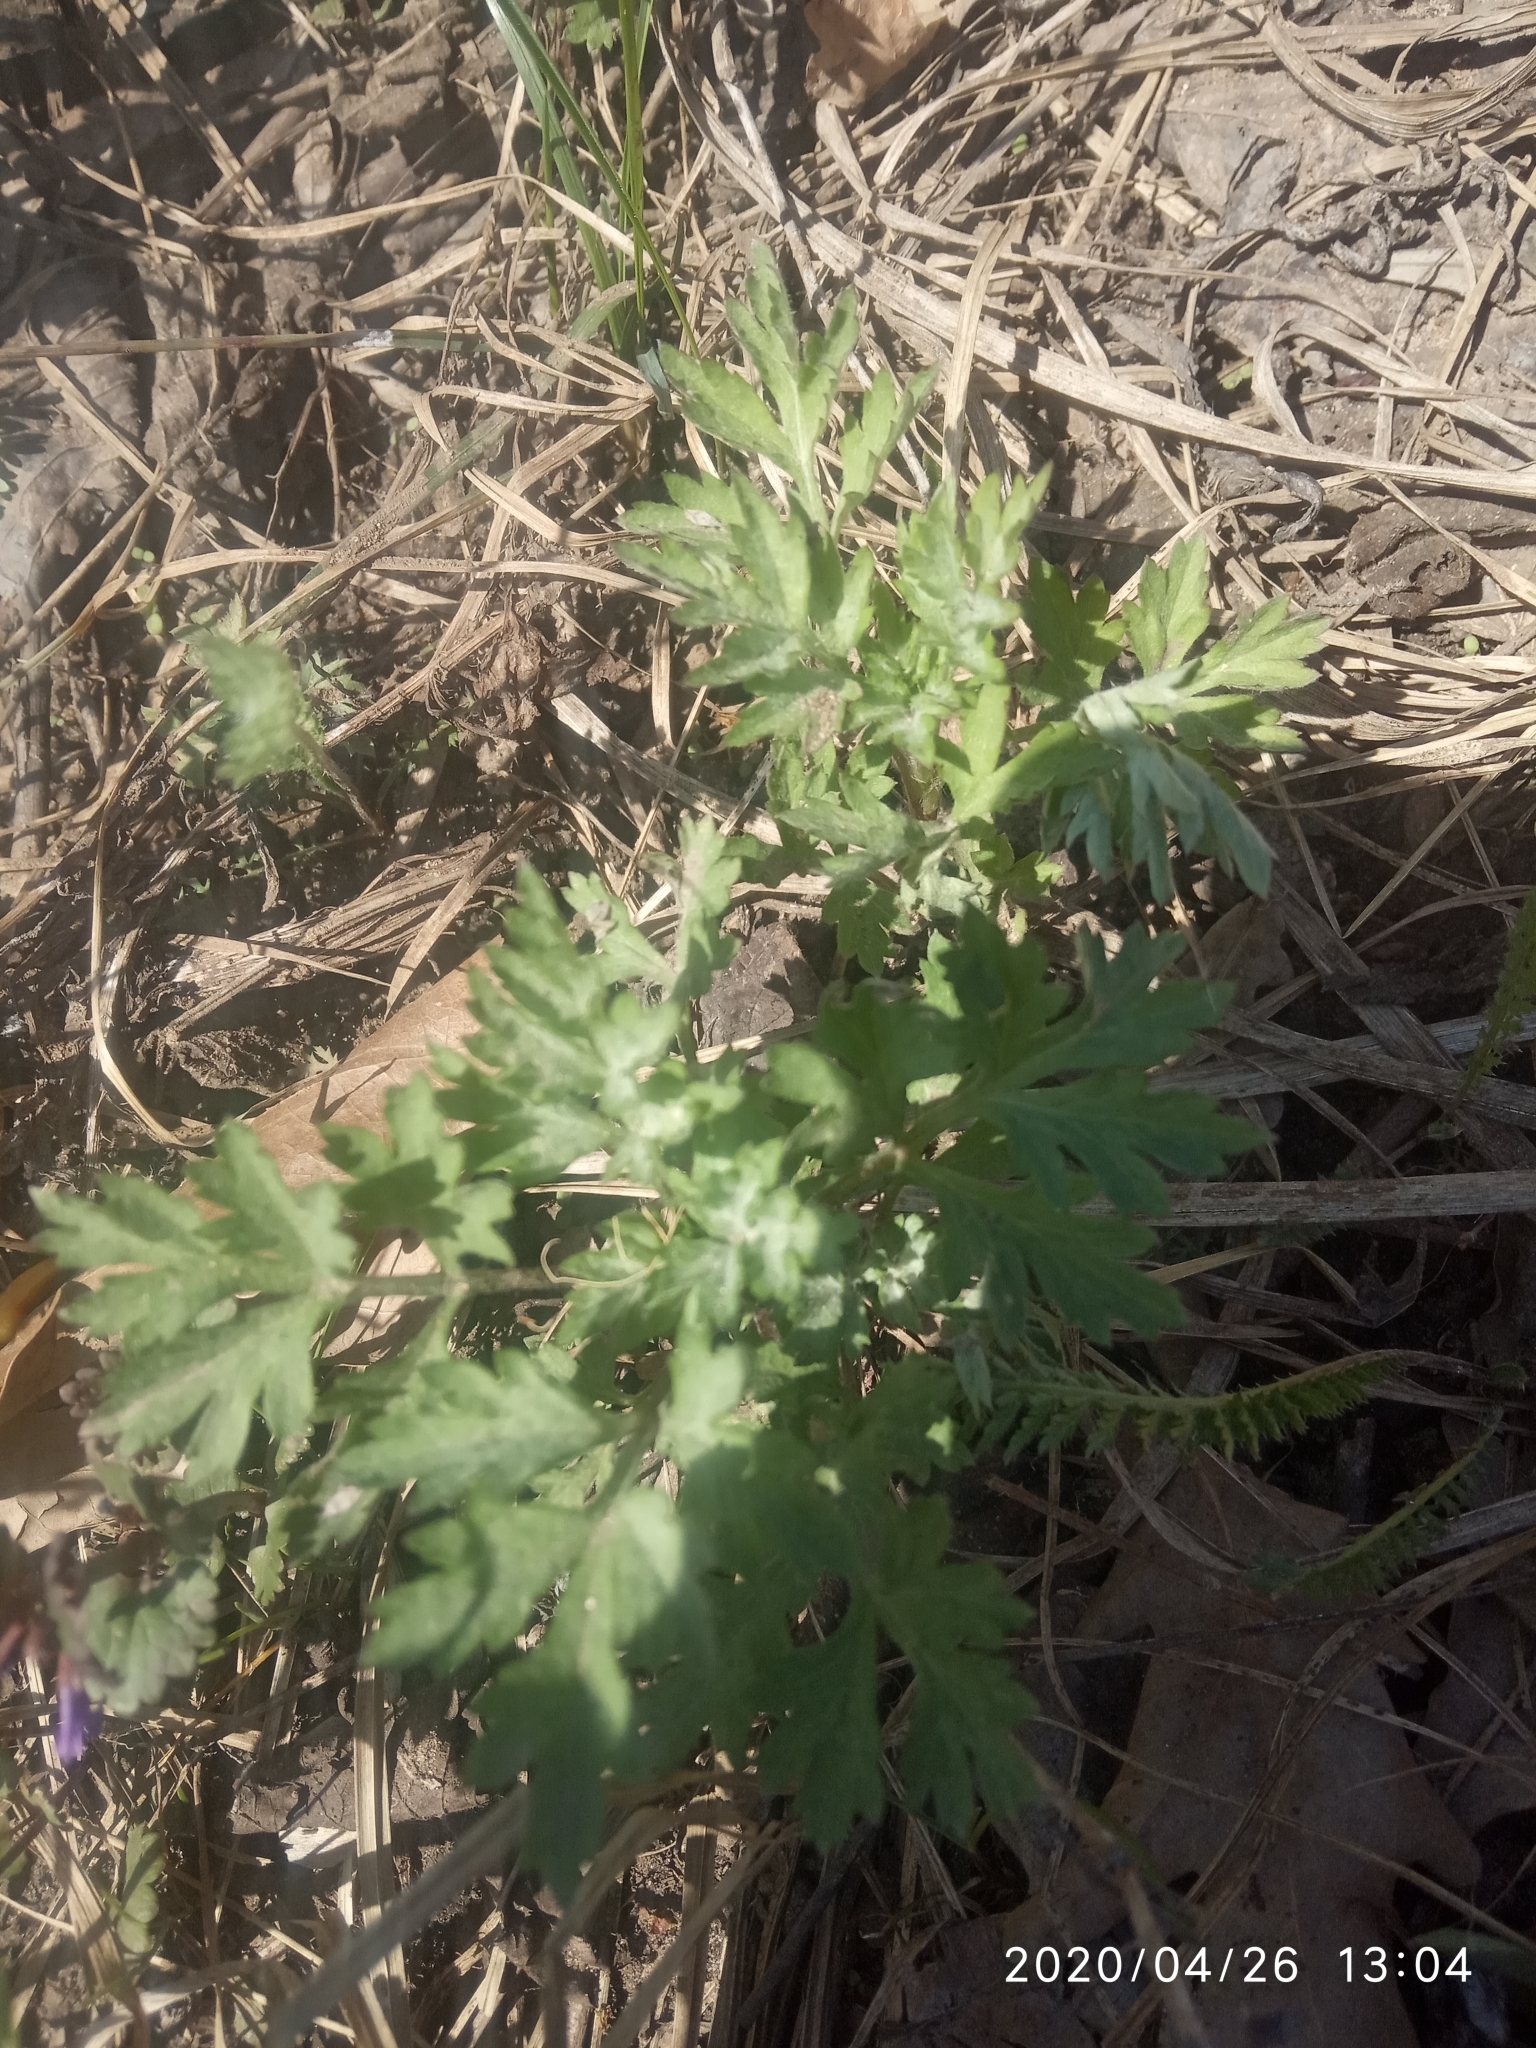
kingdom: Plantae
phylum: Tracheophyta
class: Magnoliopsida
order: Asterales
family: Asteraceae
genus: Artemisia
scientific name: Artemisia vulgaris
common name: Mugwort
